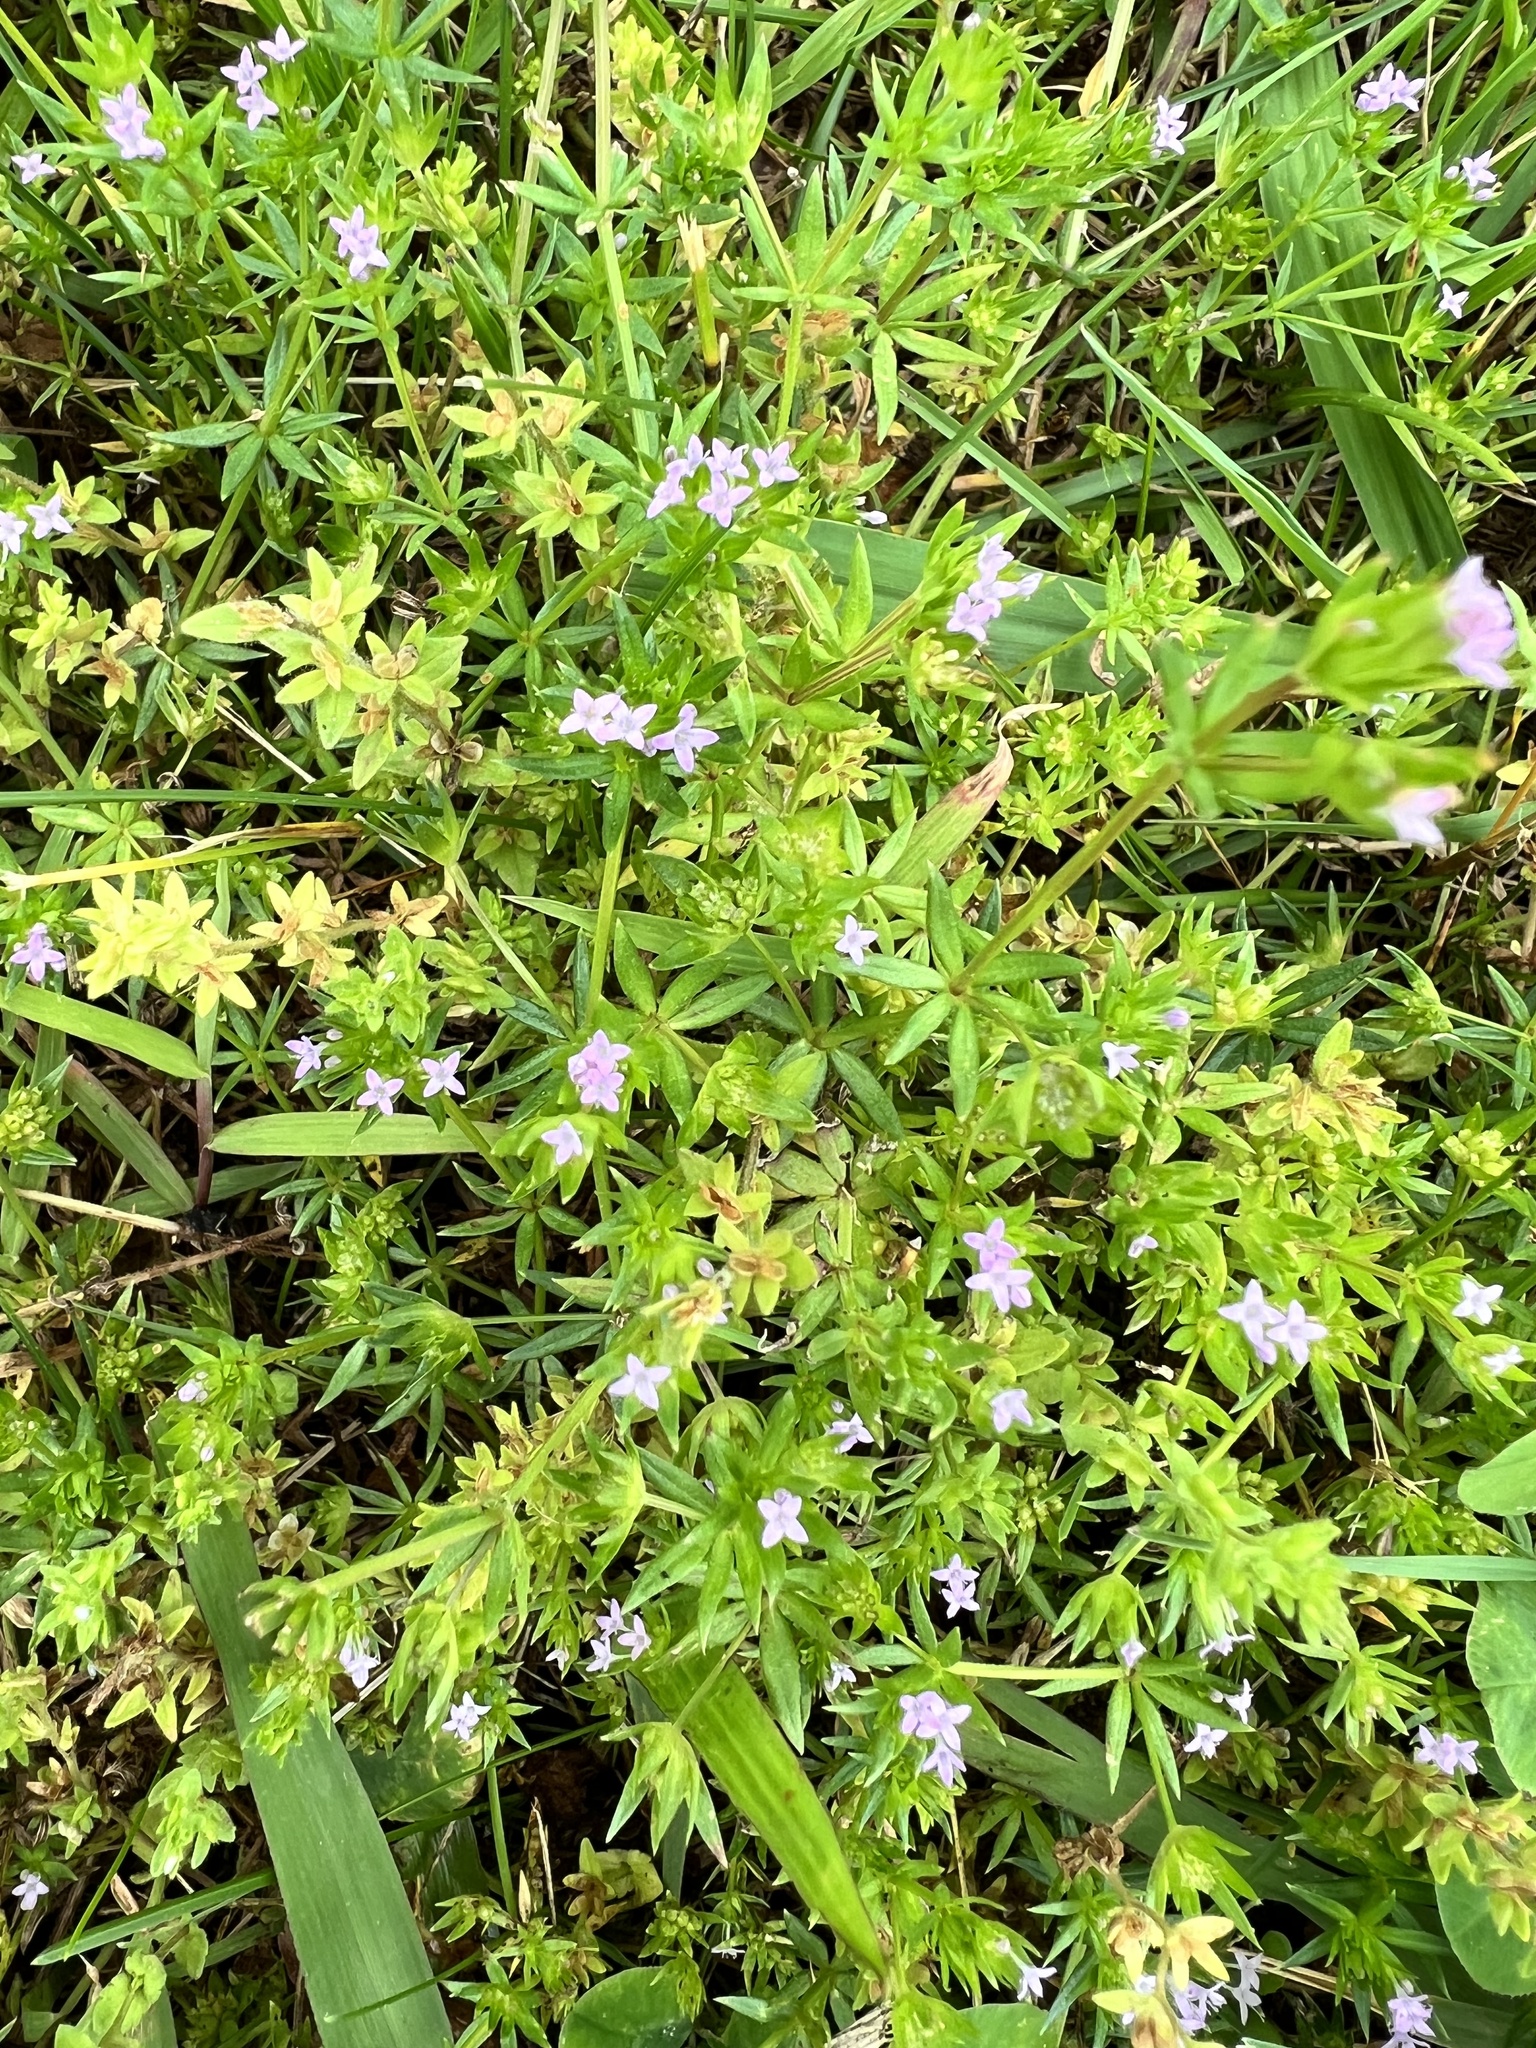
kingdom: Plantae
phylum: Tracheophyta
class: Magnoliopsida
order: Gentianales
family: Rubiaceae
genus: Sherardia
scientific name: Sherardia arvensis
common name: Field madder
